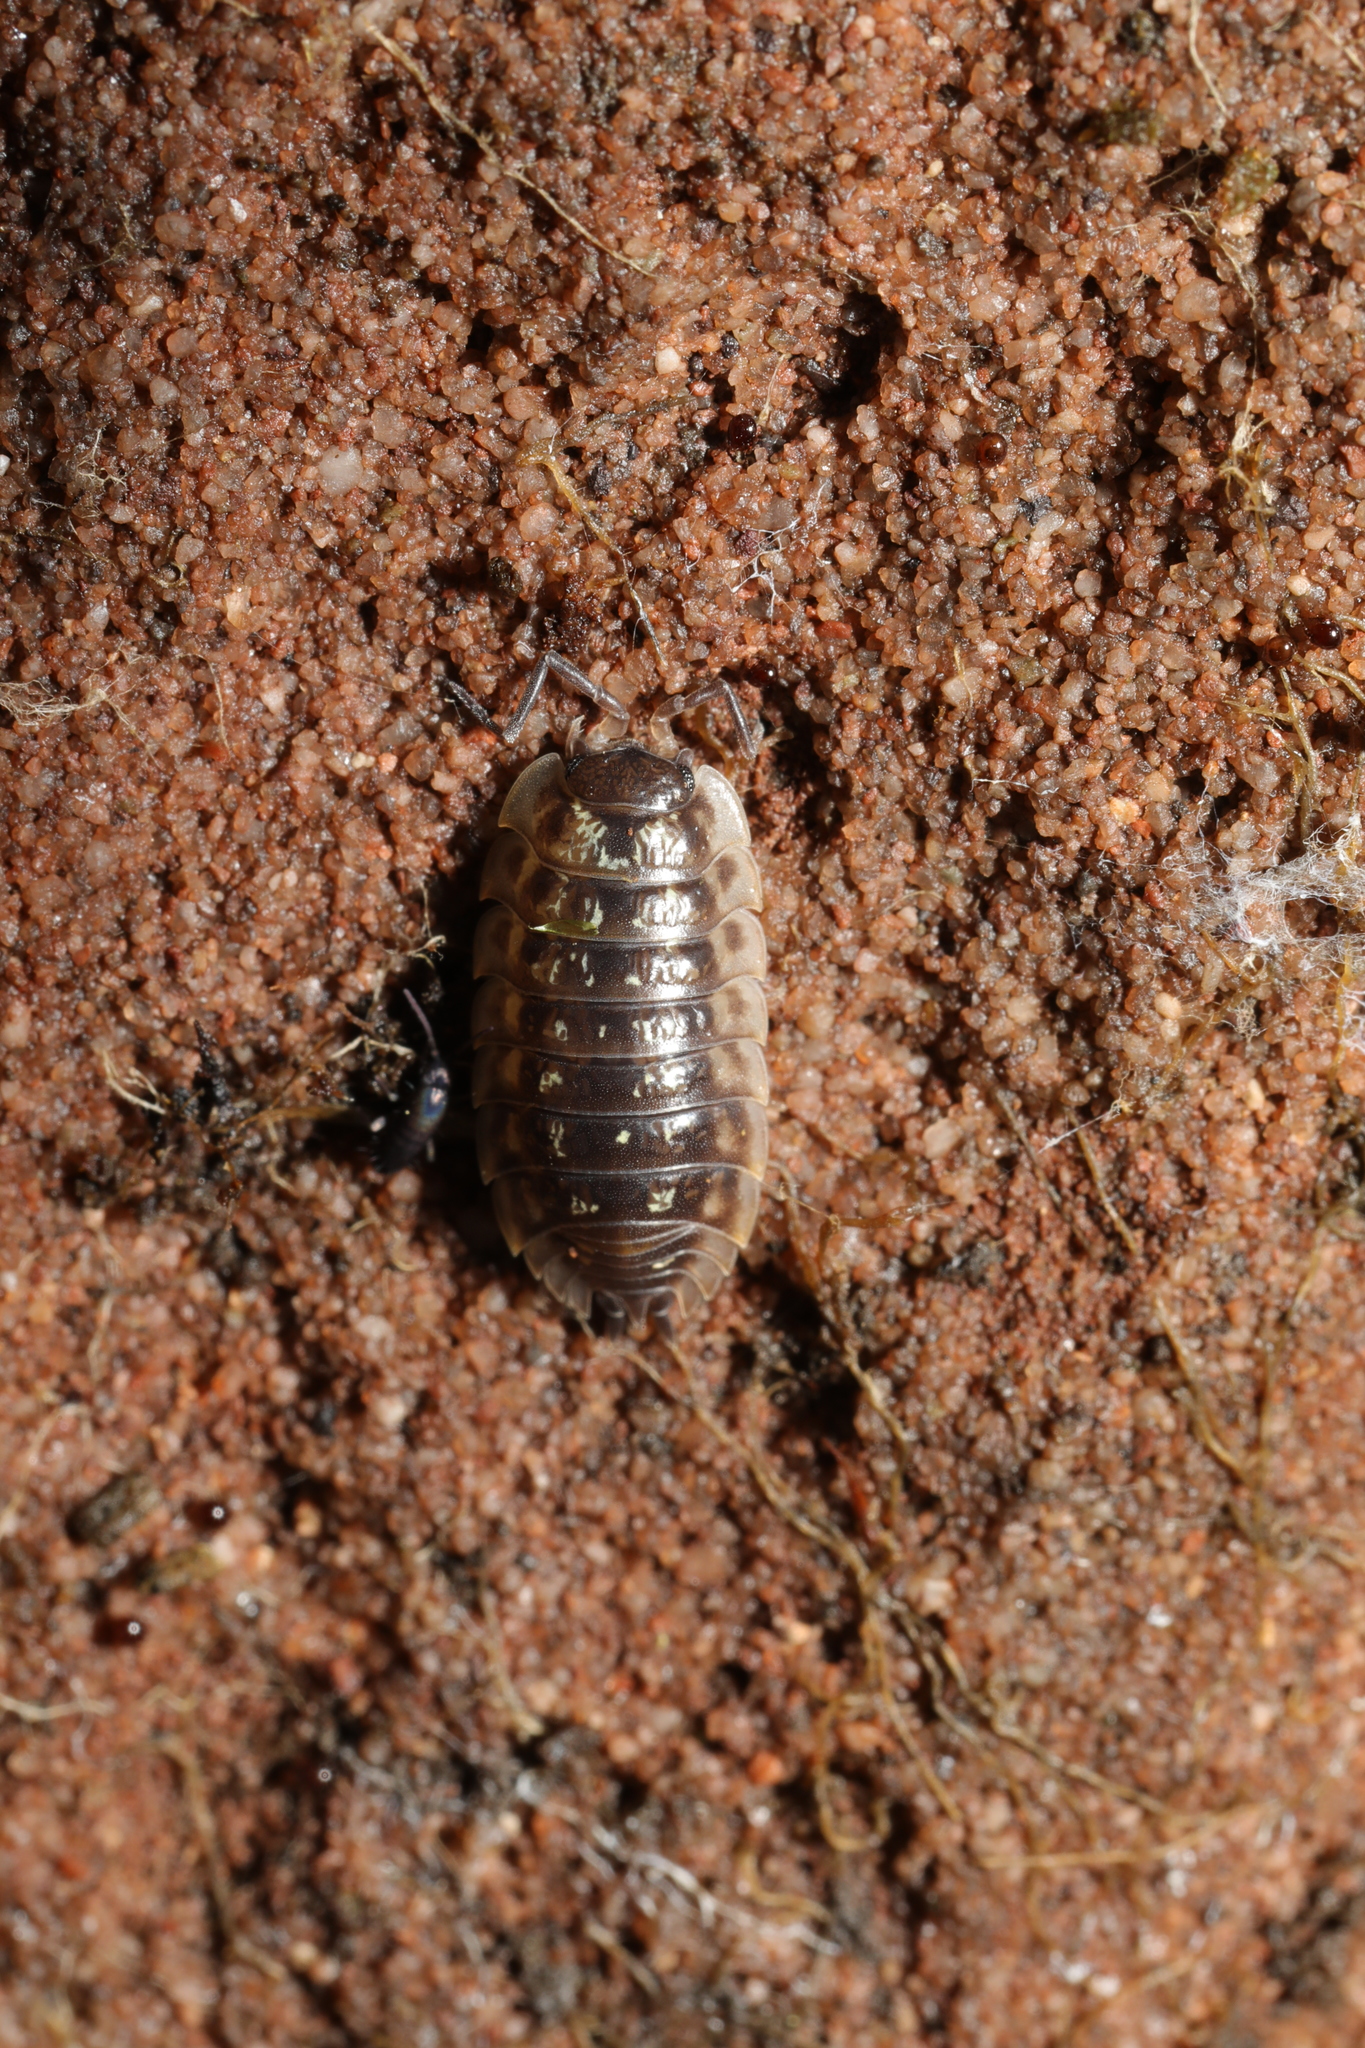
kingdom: Animalia
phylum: Arthropoda
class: Malacostraca
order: Isopoda
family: Oniscidae
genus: Oniscus
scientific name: Oniscus asellus
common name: Common shiny woodlouse
